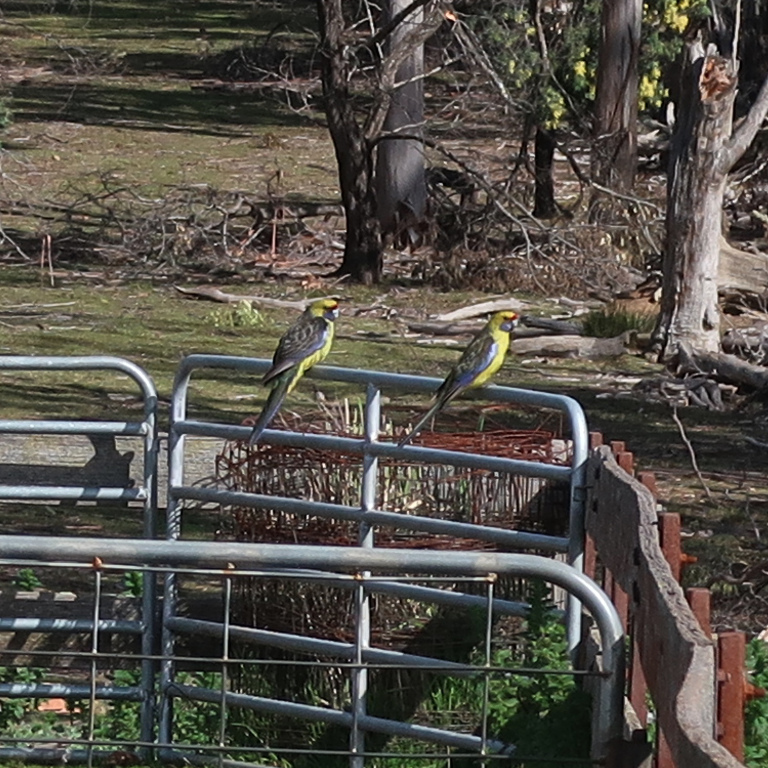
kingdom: Animalia
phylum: Chordata
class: Aves
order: Psittaciformes
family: Psittacidae
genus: Platycercus
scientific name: Platycercus caledonicus
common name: Green rosella
